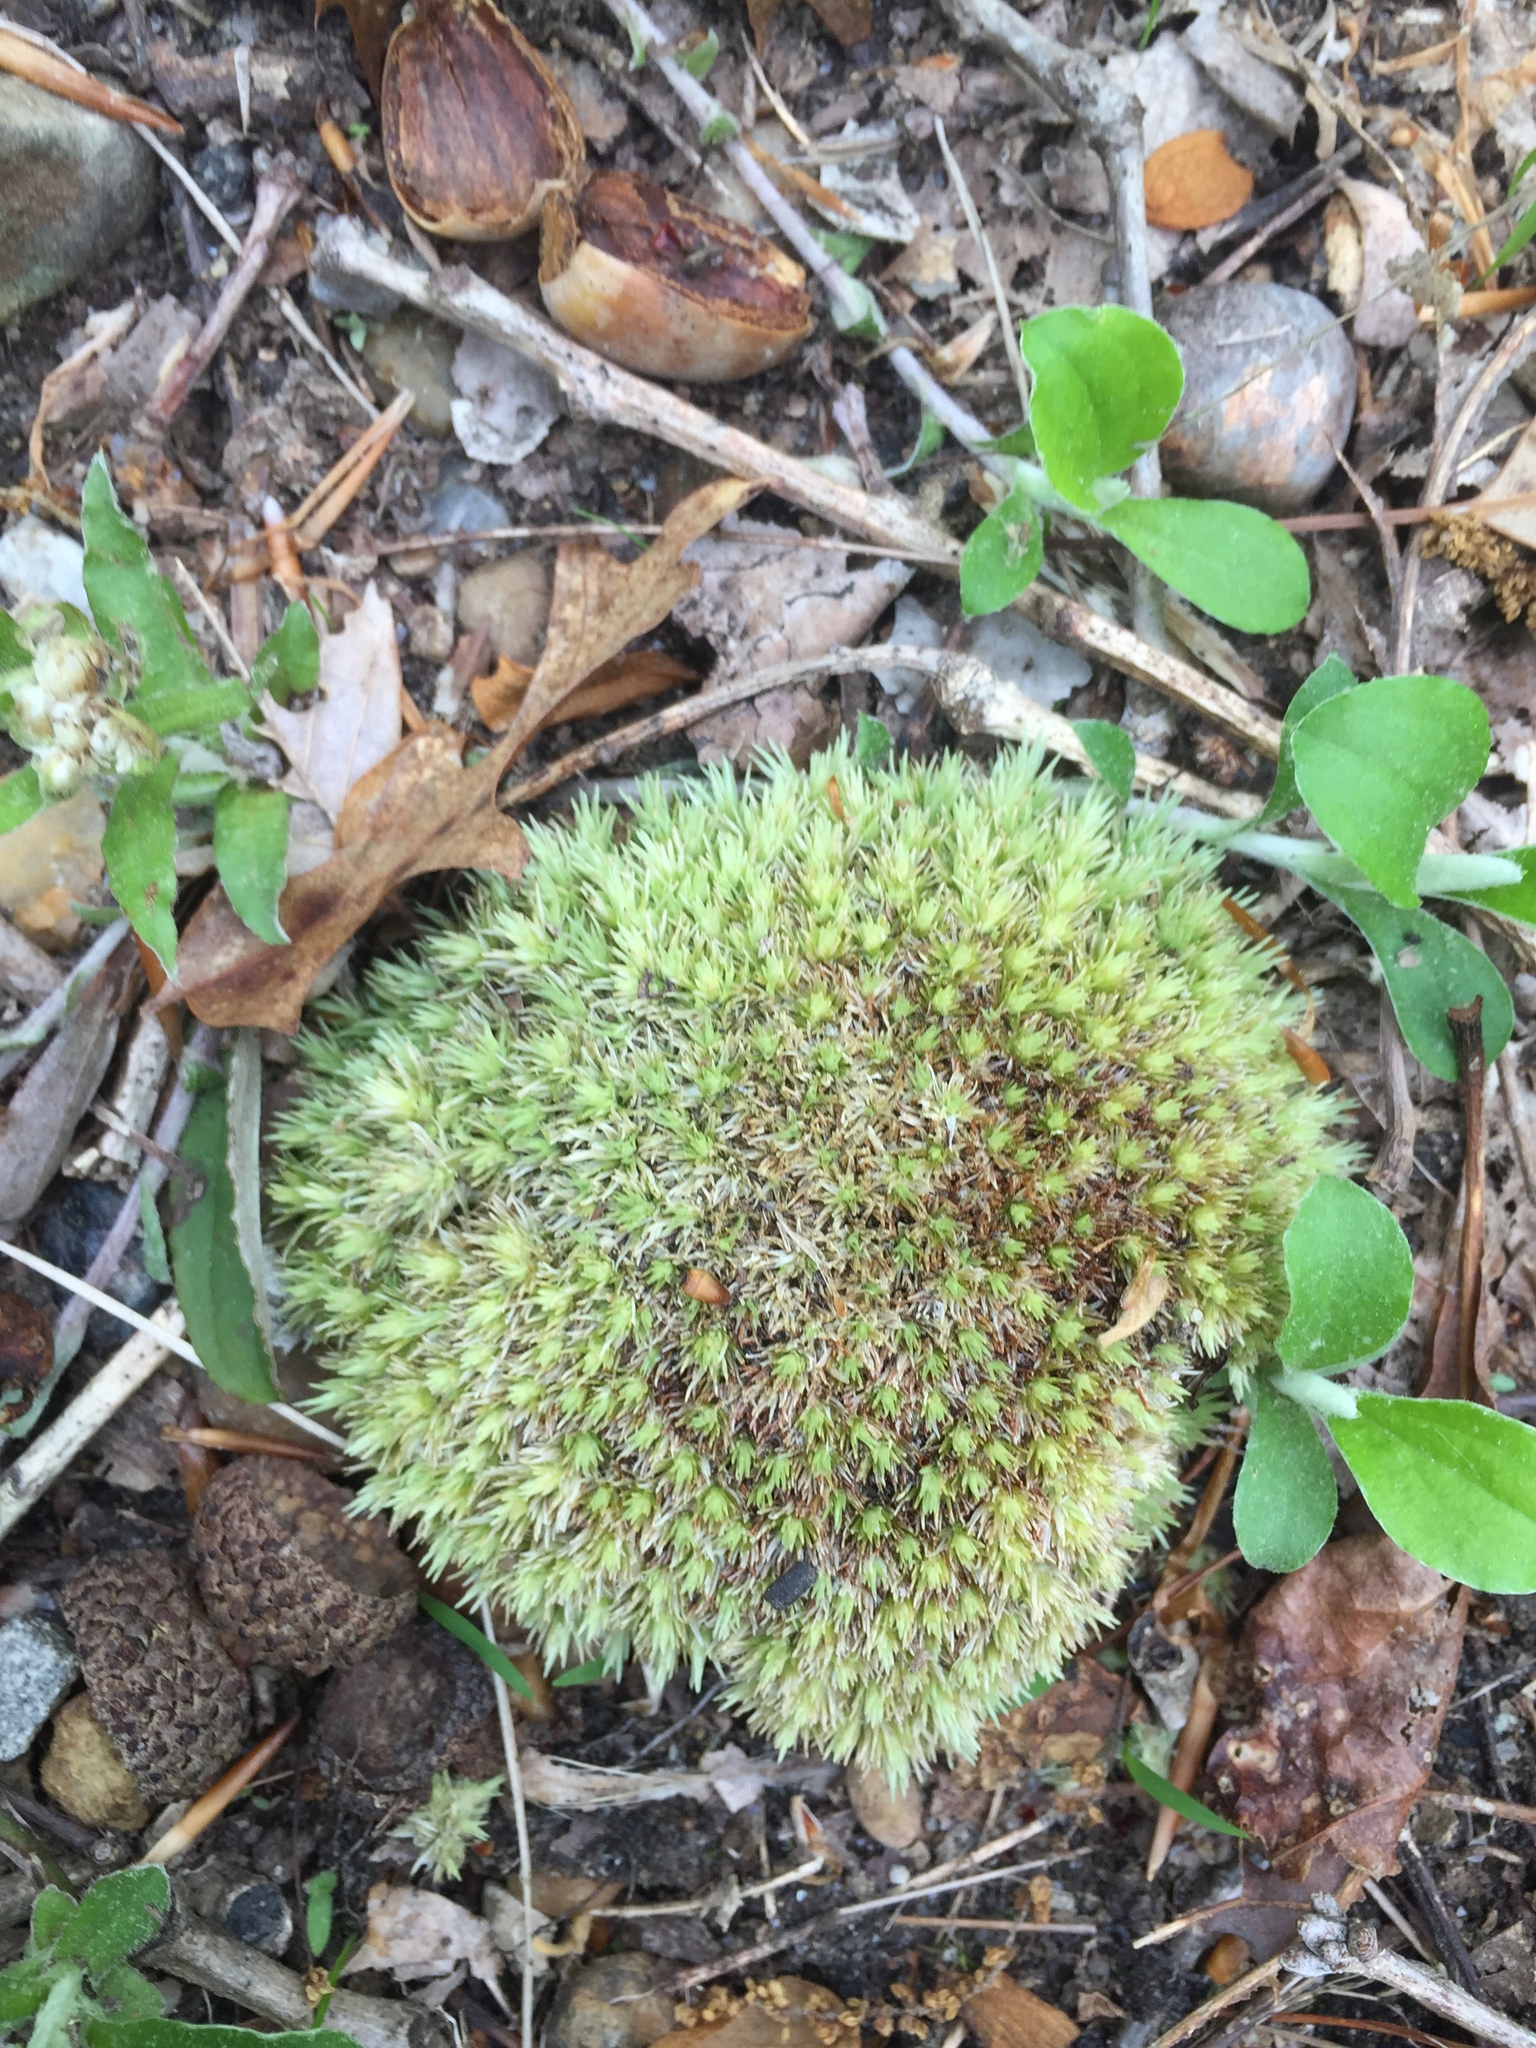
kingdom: Plantae
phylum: Bryophyta
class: Bryopsida
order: Dicranales
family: Leucobryaceae
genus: Leucobryum
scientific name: Leucobryum glaucum
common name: Large white-moss
